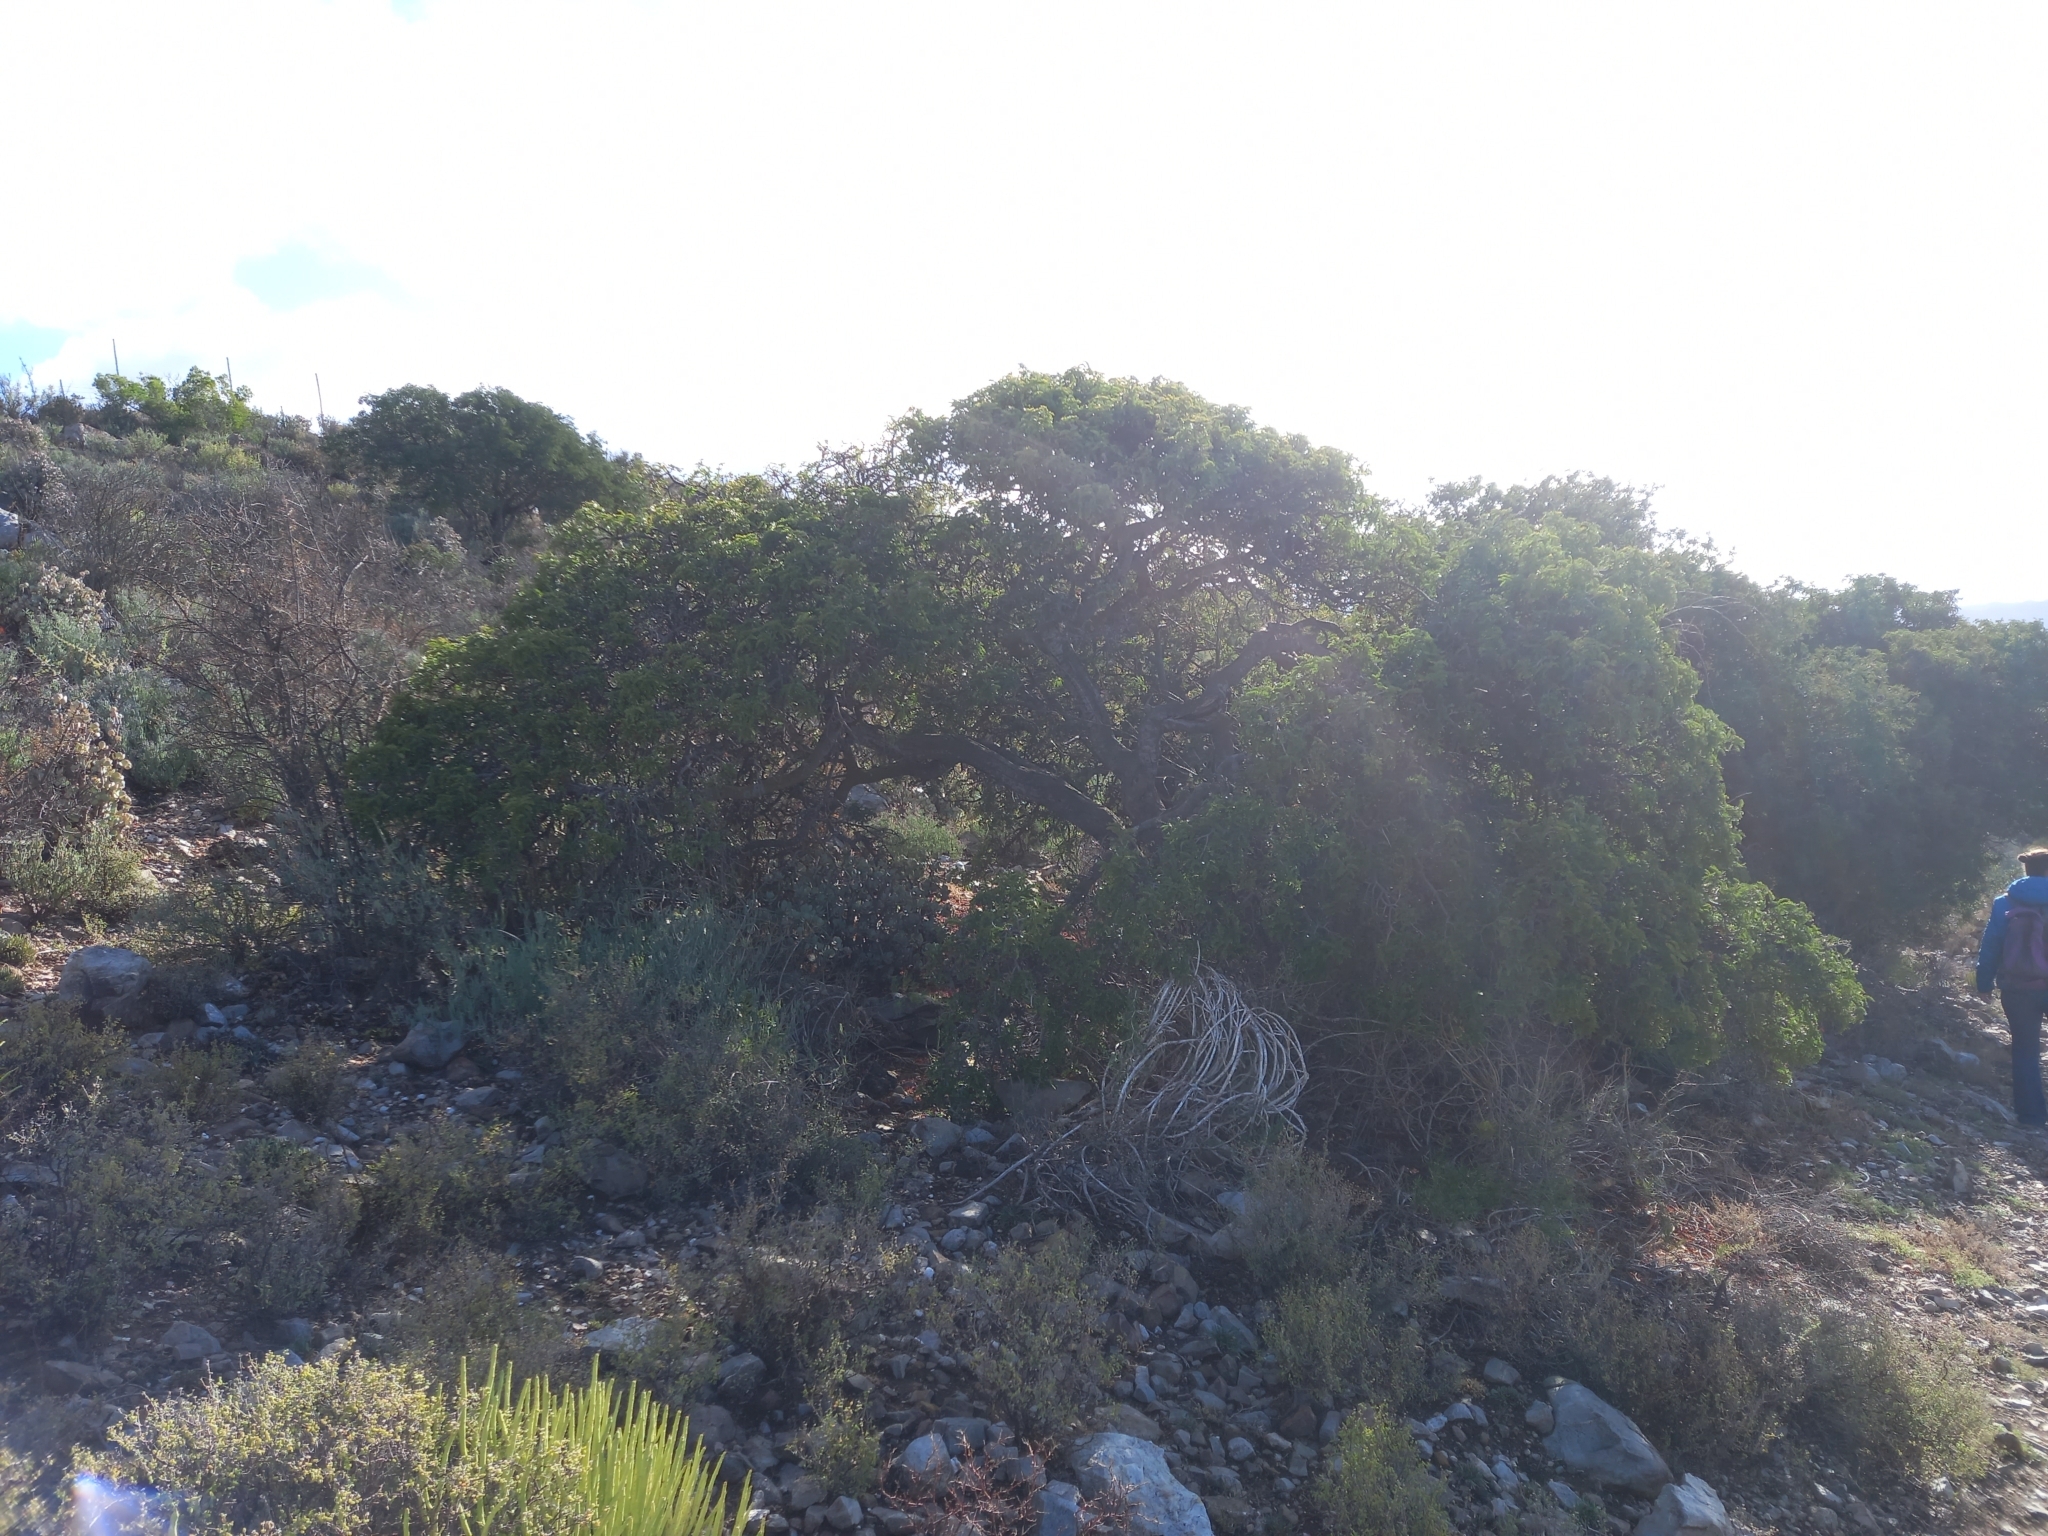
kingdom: Plantae
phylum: Tracheophyta
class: Magnoliopsida
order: Fabales
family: Fabaceae
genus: Schotia
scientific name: Schotia afra
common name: Hottentot's bean
